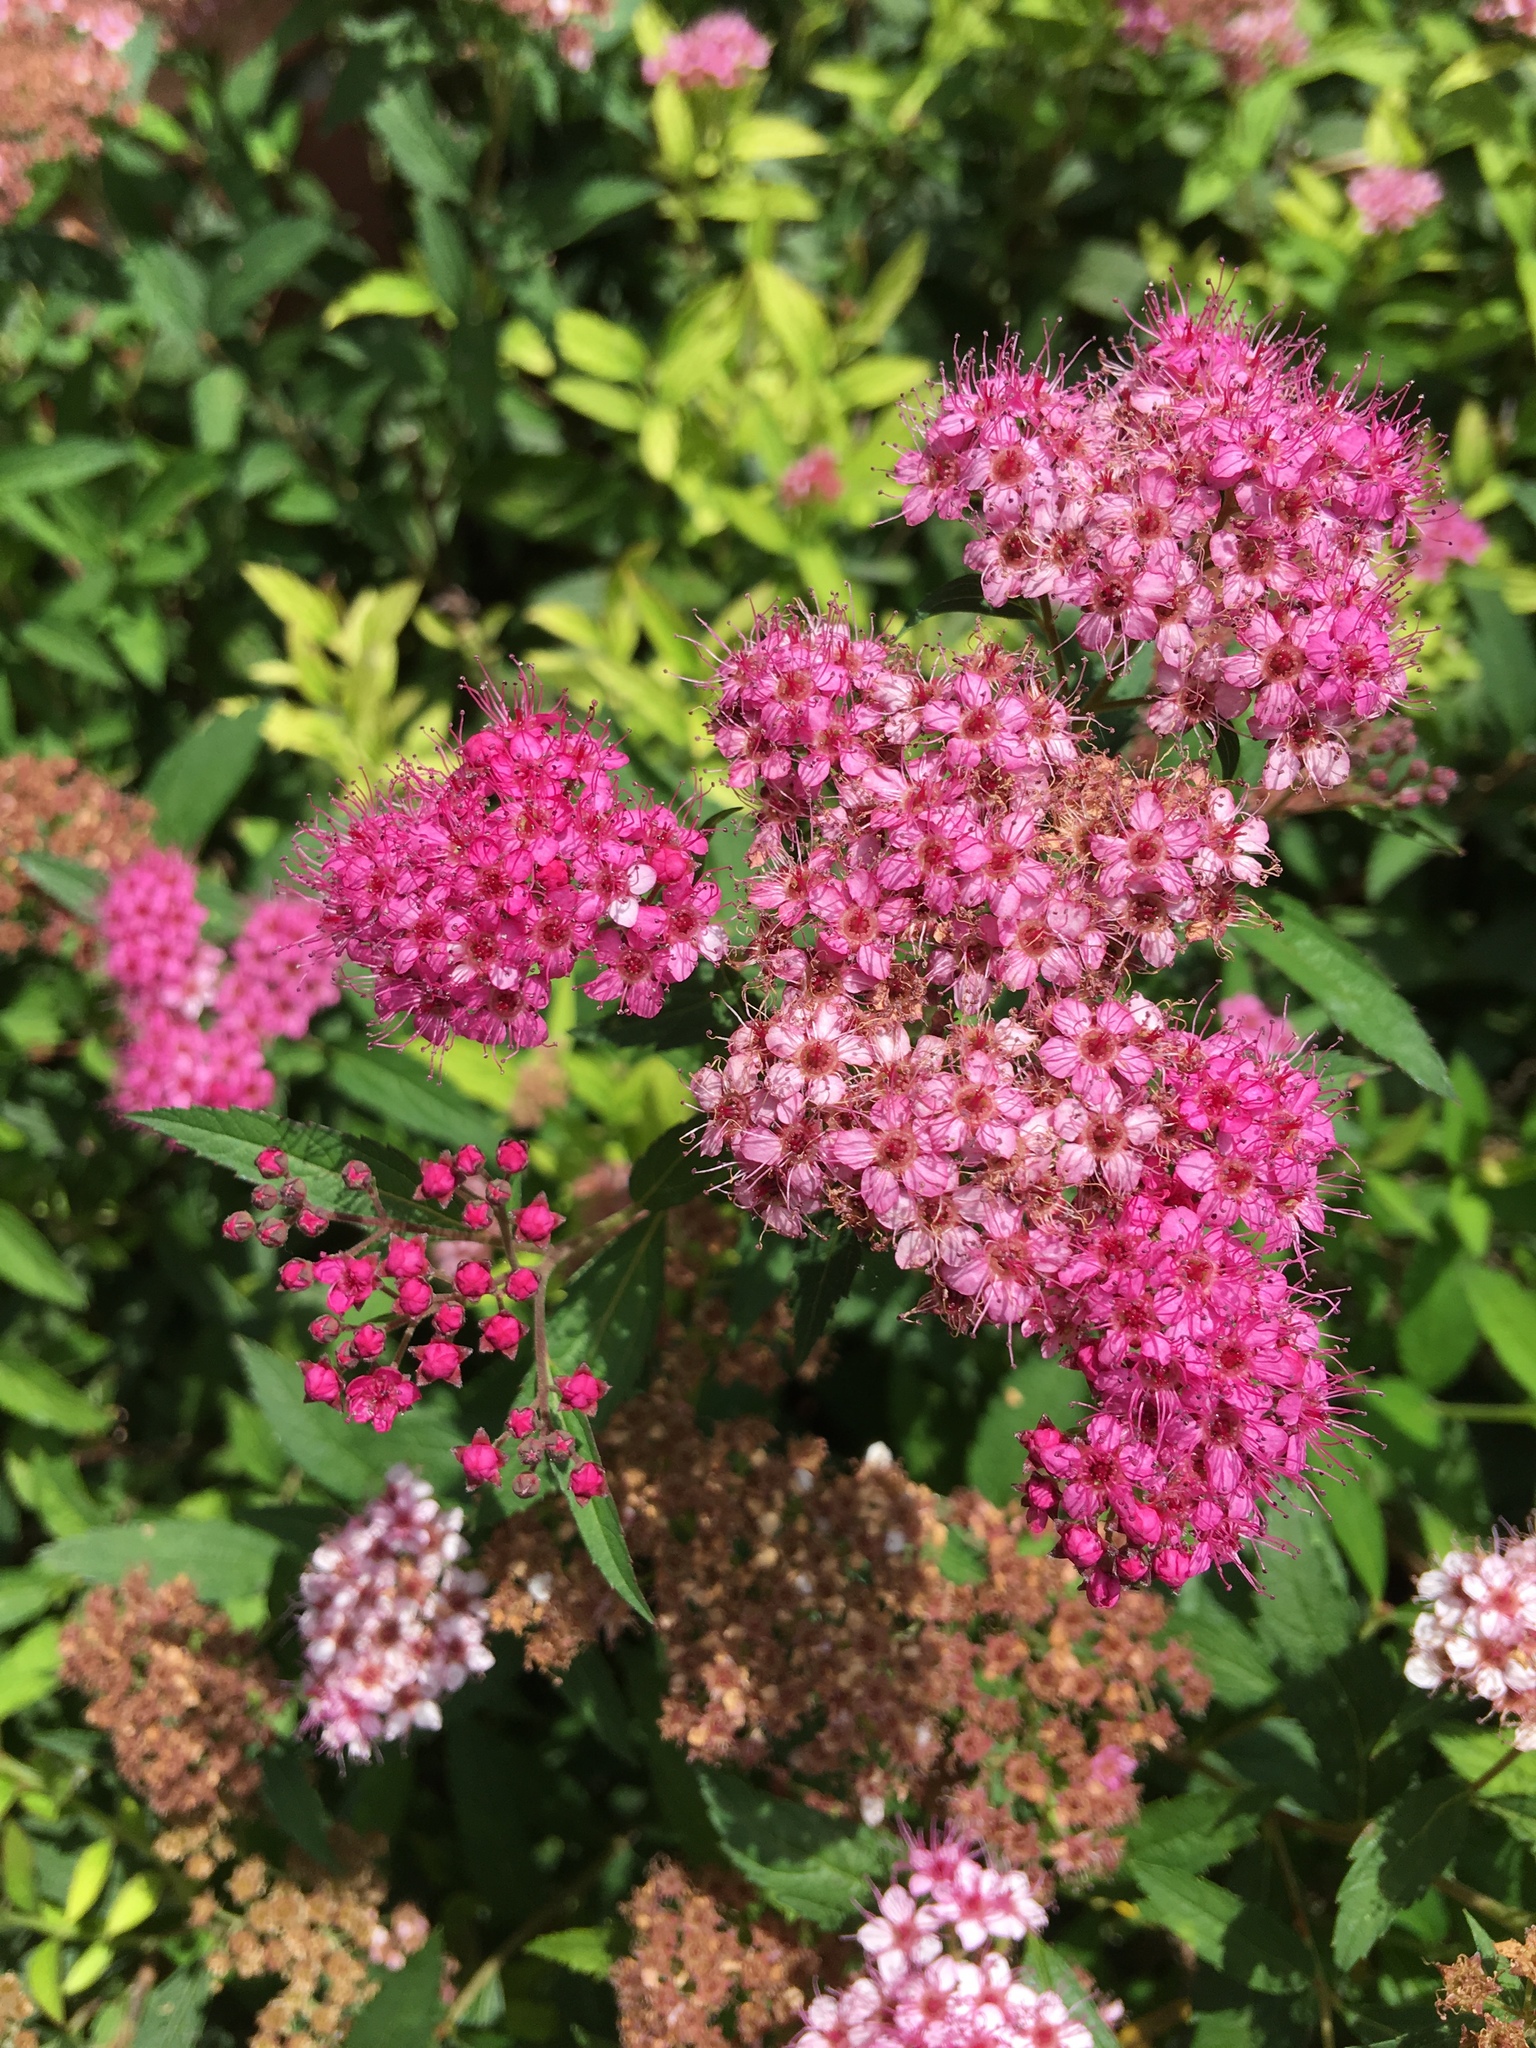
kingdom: Plantae
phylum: Tracheophyta
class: Magnoliopsida
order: Rosales
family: Rosaceae
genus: Spiraea
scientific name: Spiraea japonica
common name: Japanese spiraea
